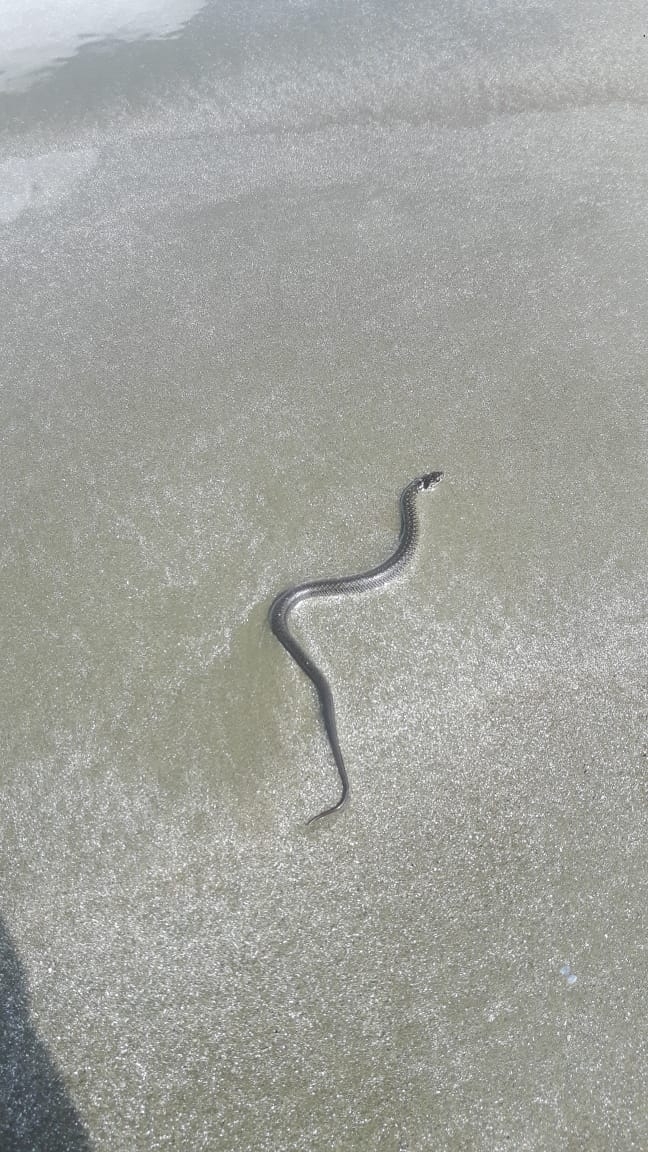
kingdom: Animalia
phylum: Chordata
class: Squamata
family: Colubridae
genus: Erythrolamprus
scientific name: Erythrolamprus miliaris
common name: Military ground snake
